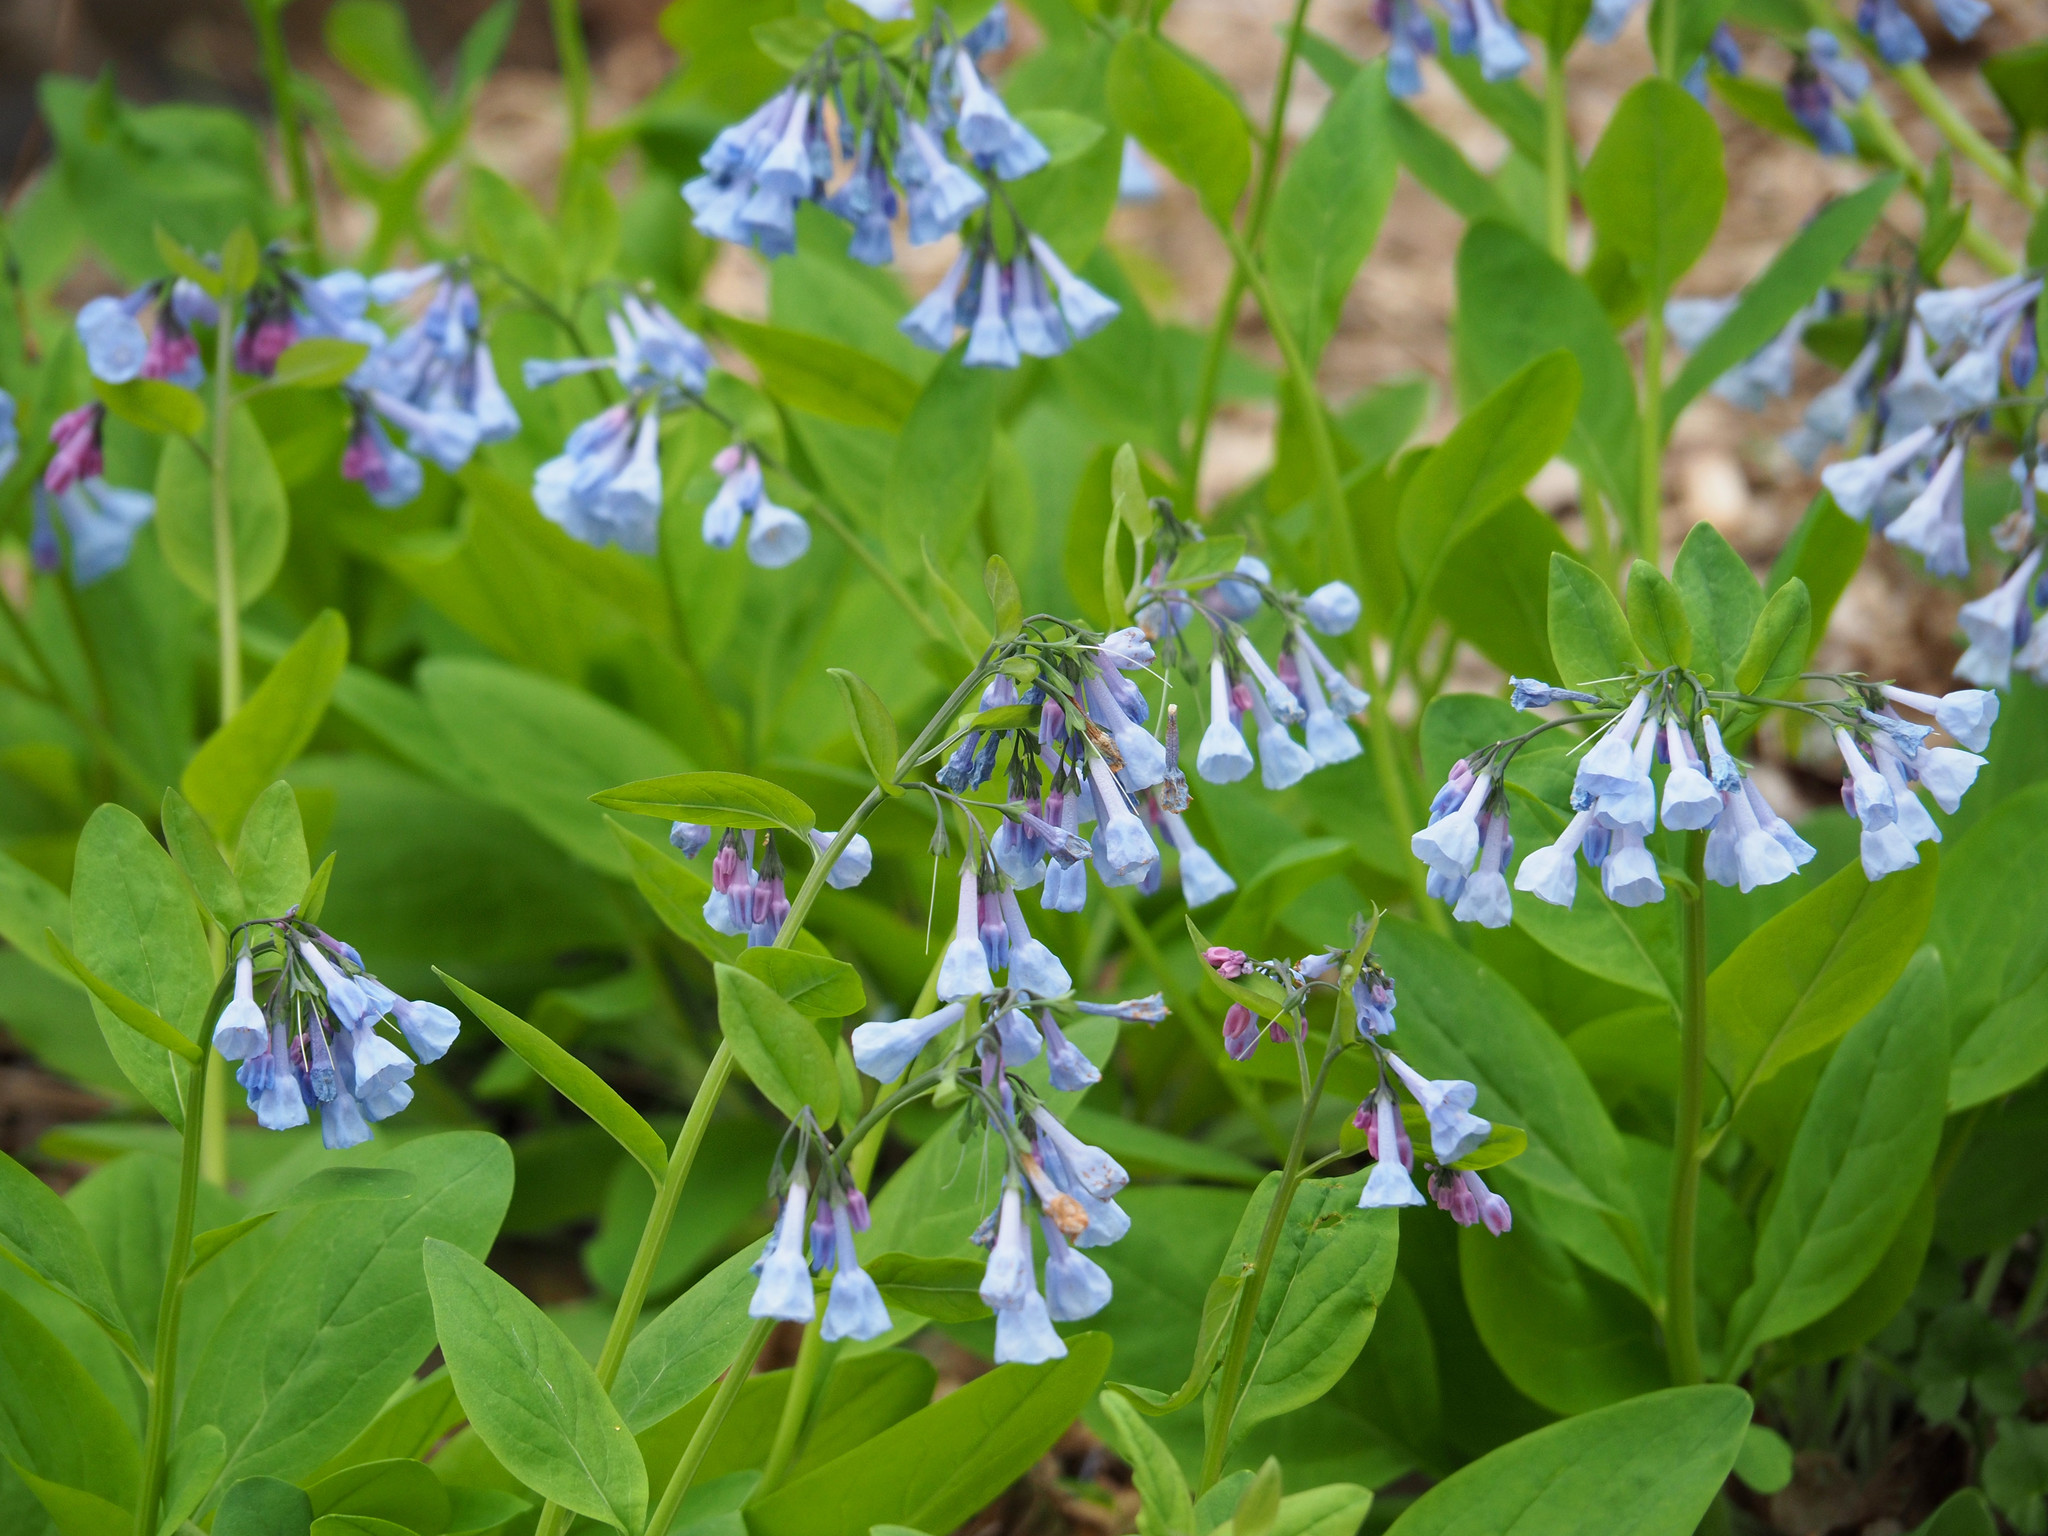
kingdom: Plantae
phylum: Tracheophyta
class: Magnoliopsida
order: Boraginales
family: Boraginaceae
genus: Mertensia
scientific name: Mertensia virginica
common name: Virginia bluebells
